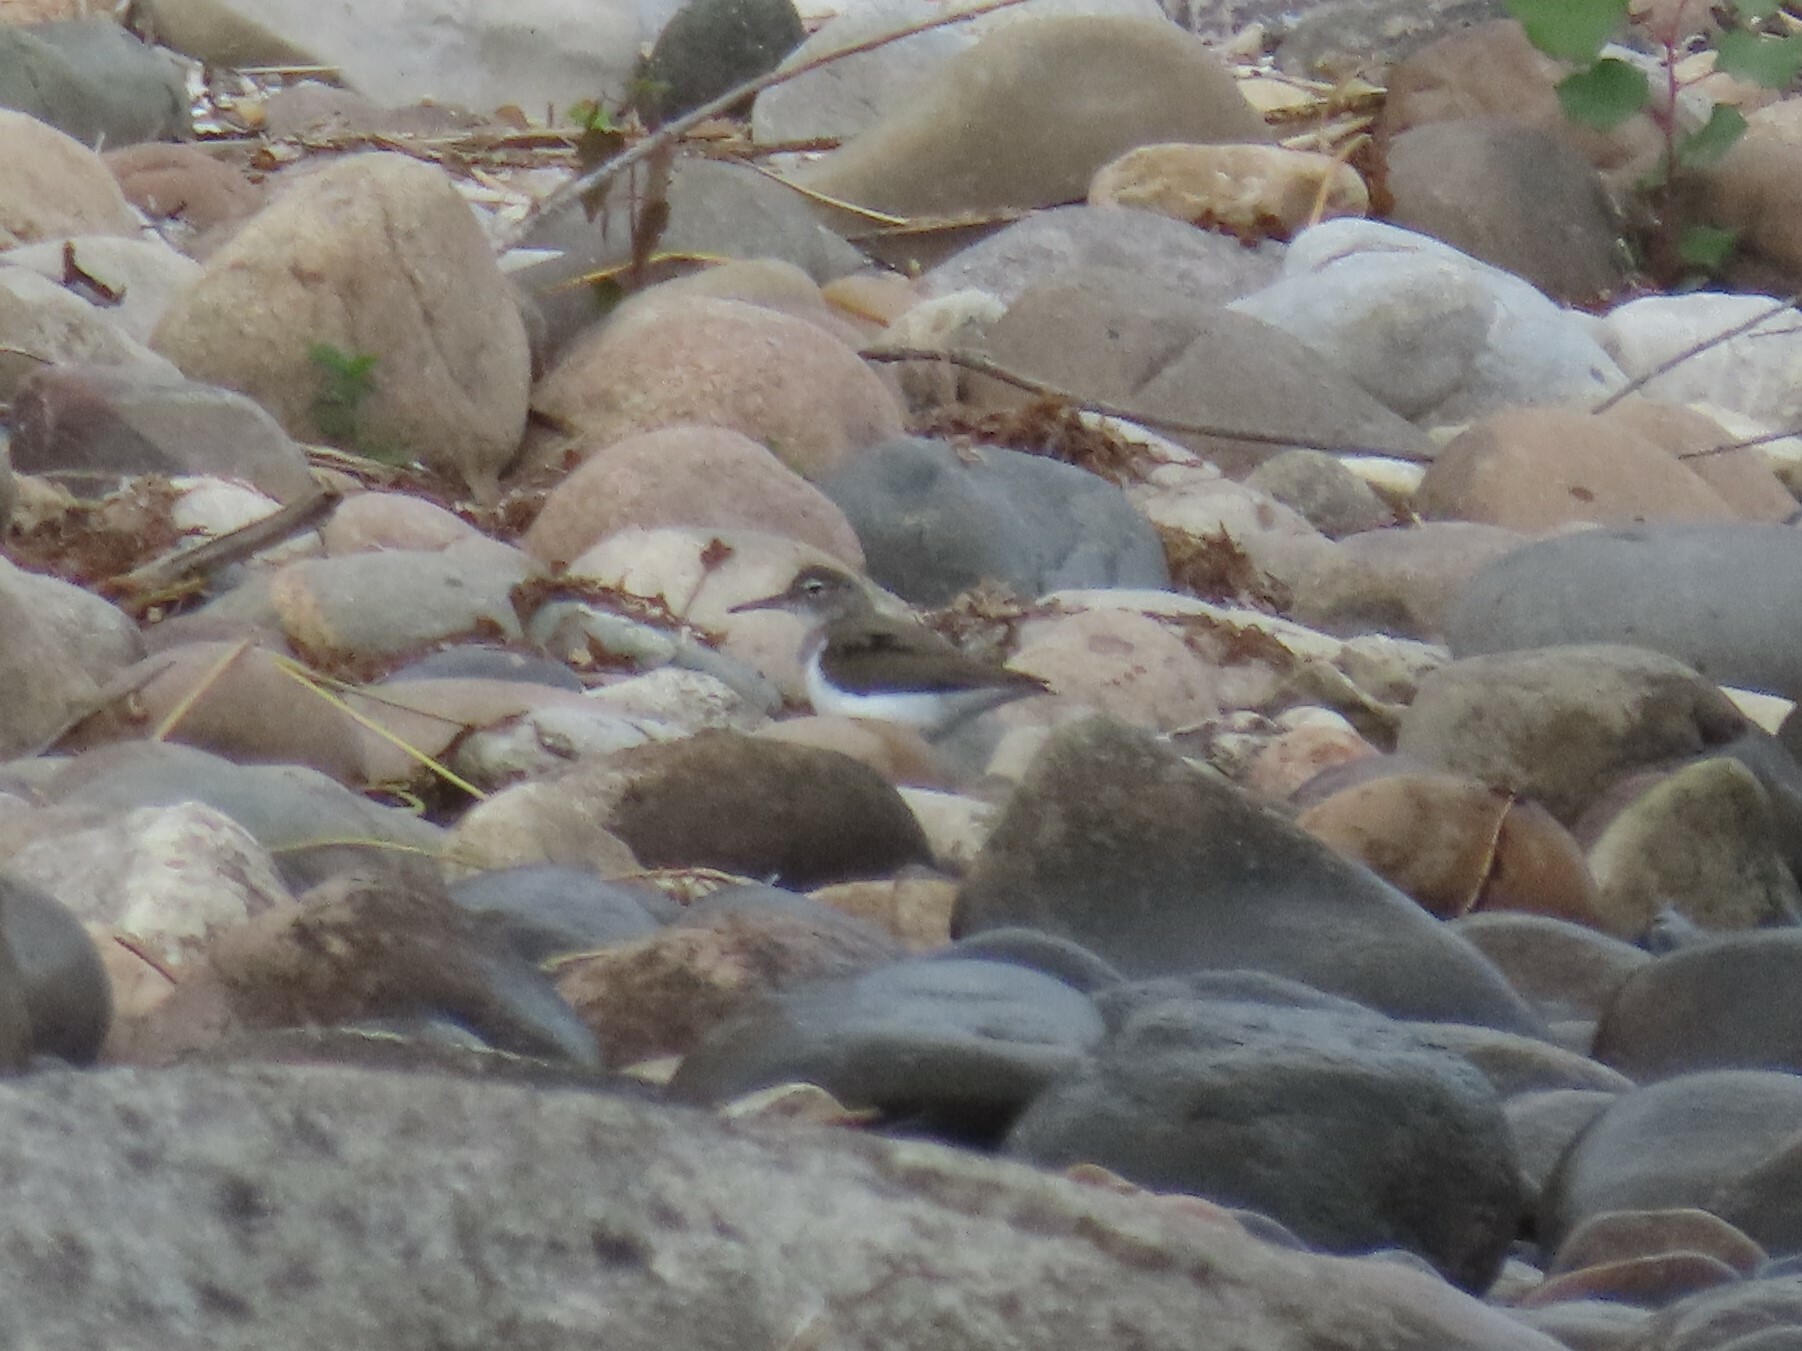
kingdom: Animalia
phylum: Chordata
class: Aves
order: Charadriiformes
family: Scolopacidae
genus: Actitis
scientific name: Actitis macularius
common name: Spotted sandpiper
